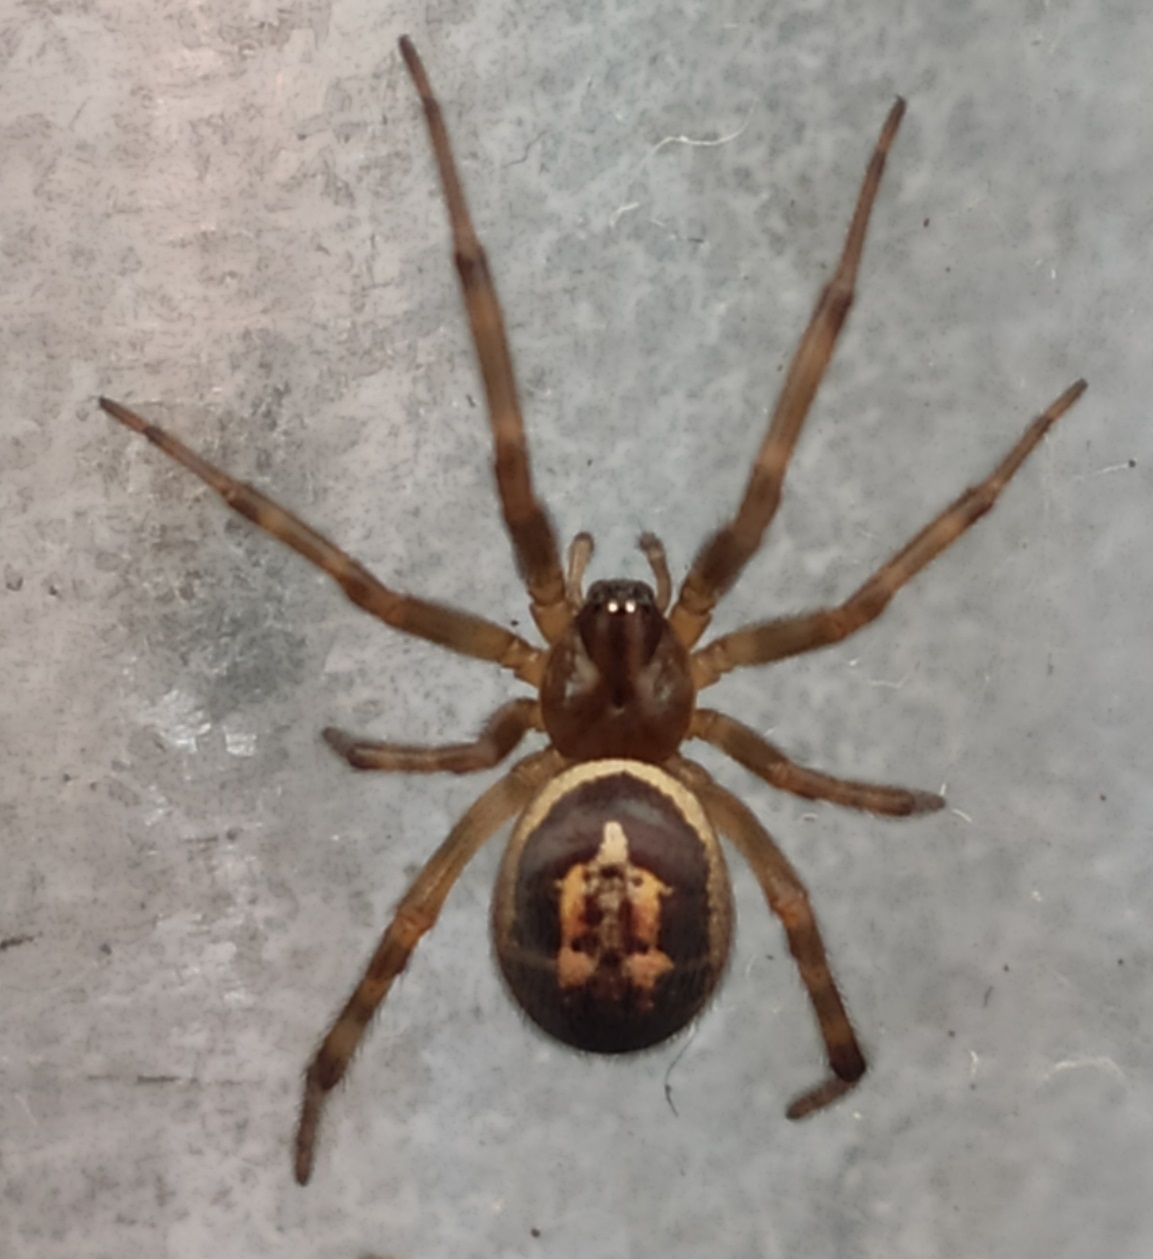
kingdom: Animalia
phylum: Arthropoda
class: Arachnida
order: Araneae
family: Theridiidae
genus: Steatoda
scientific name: Steatoda nobilis
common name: Cobweb weaver
